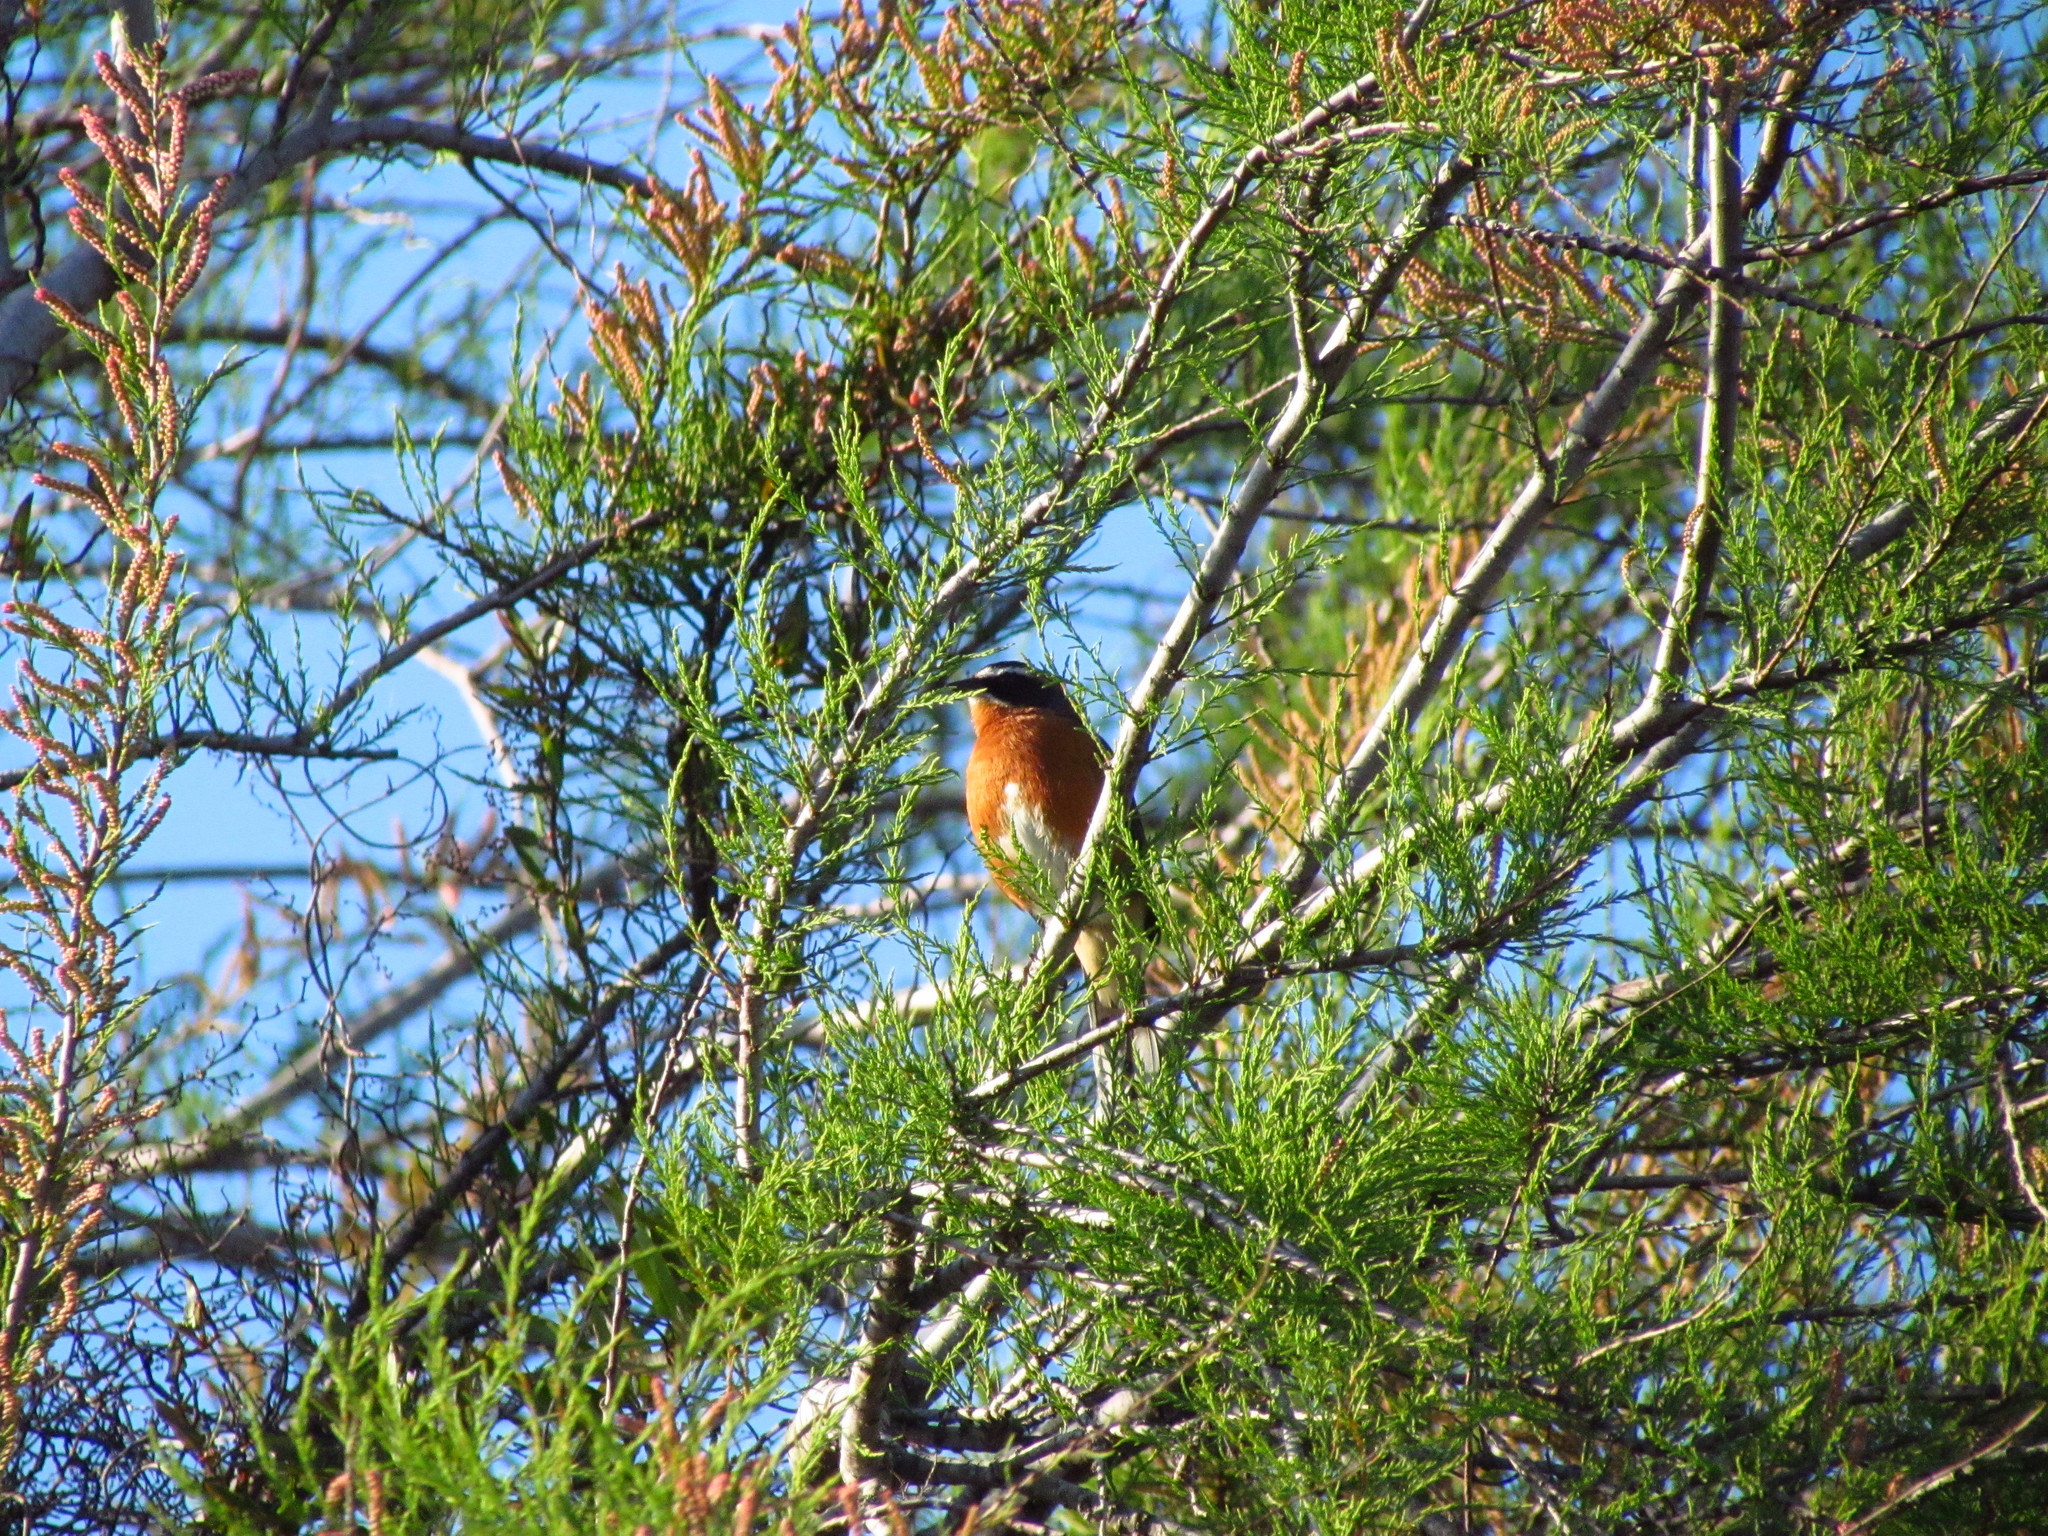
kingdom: Animalia
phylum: Chordata
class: Aves
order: Passeriformes
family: Thraupidae
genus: Poospiza
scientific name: Poospiza nigrorufa
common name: Black-and-rufous warbling finch
